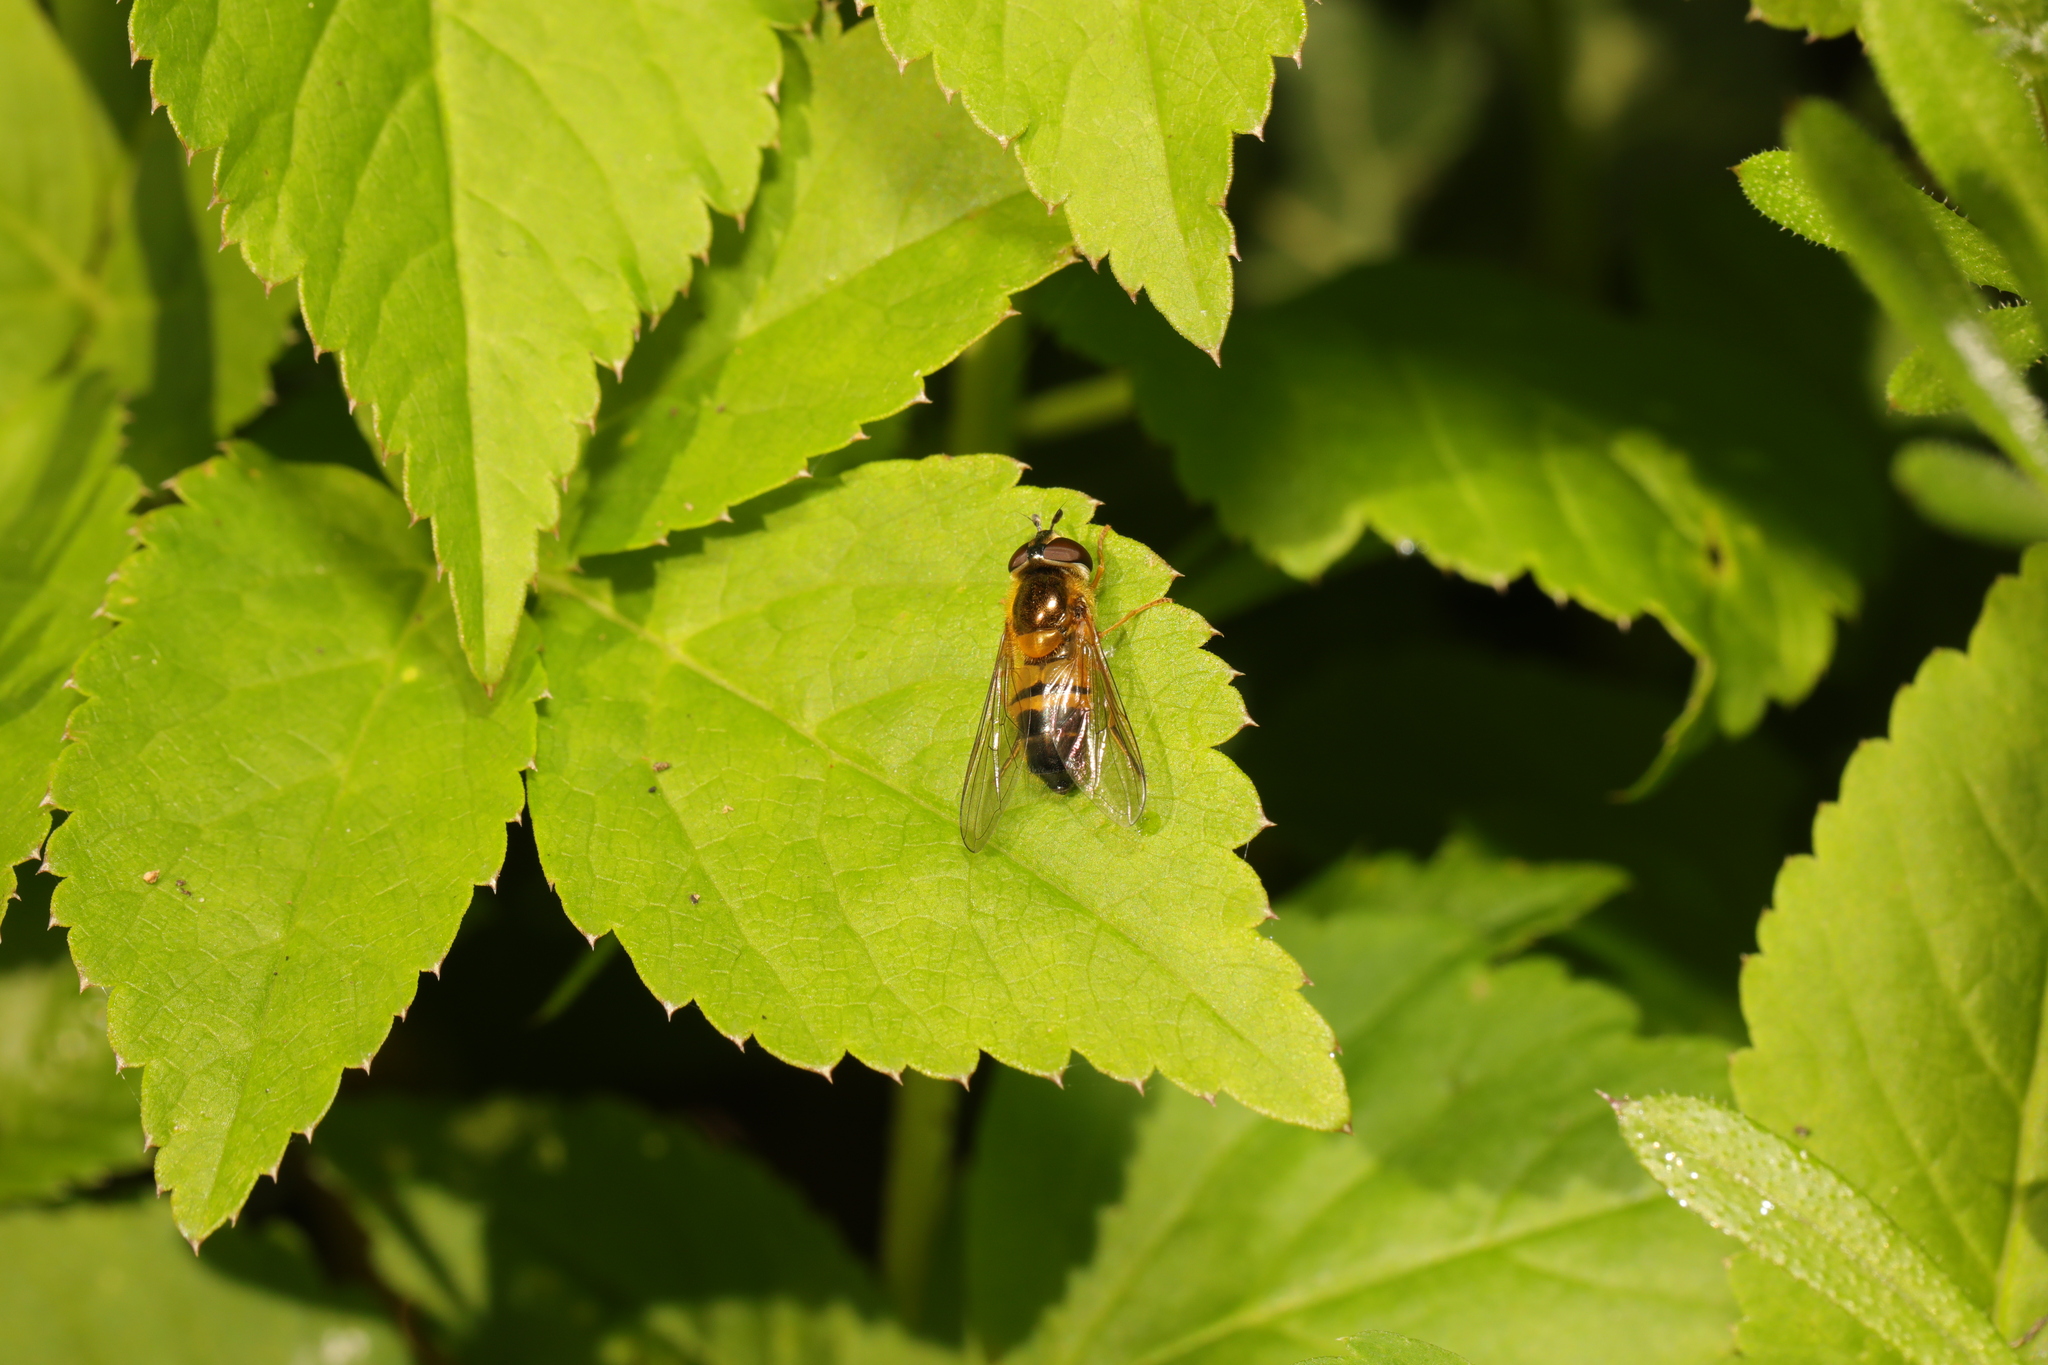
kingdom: Animalia
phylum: Arthropoda
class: Insecta
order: Diptera
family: Syrphidae
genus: Epistrophe
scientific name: Epistrophe eligans
